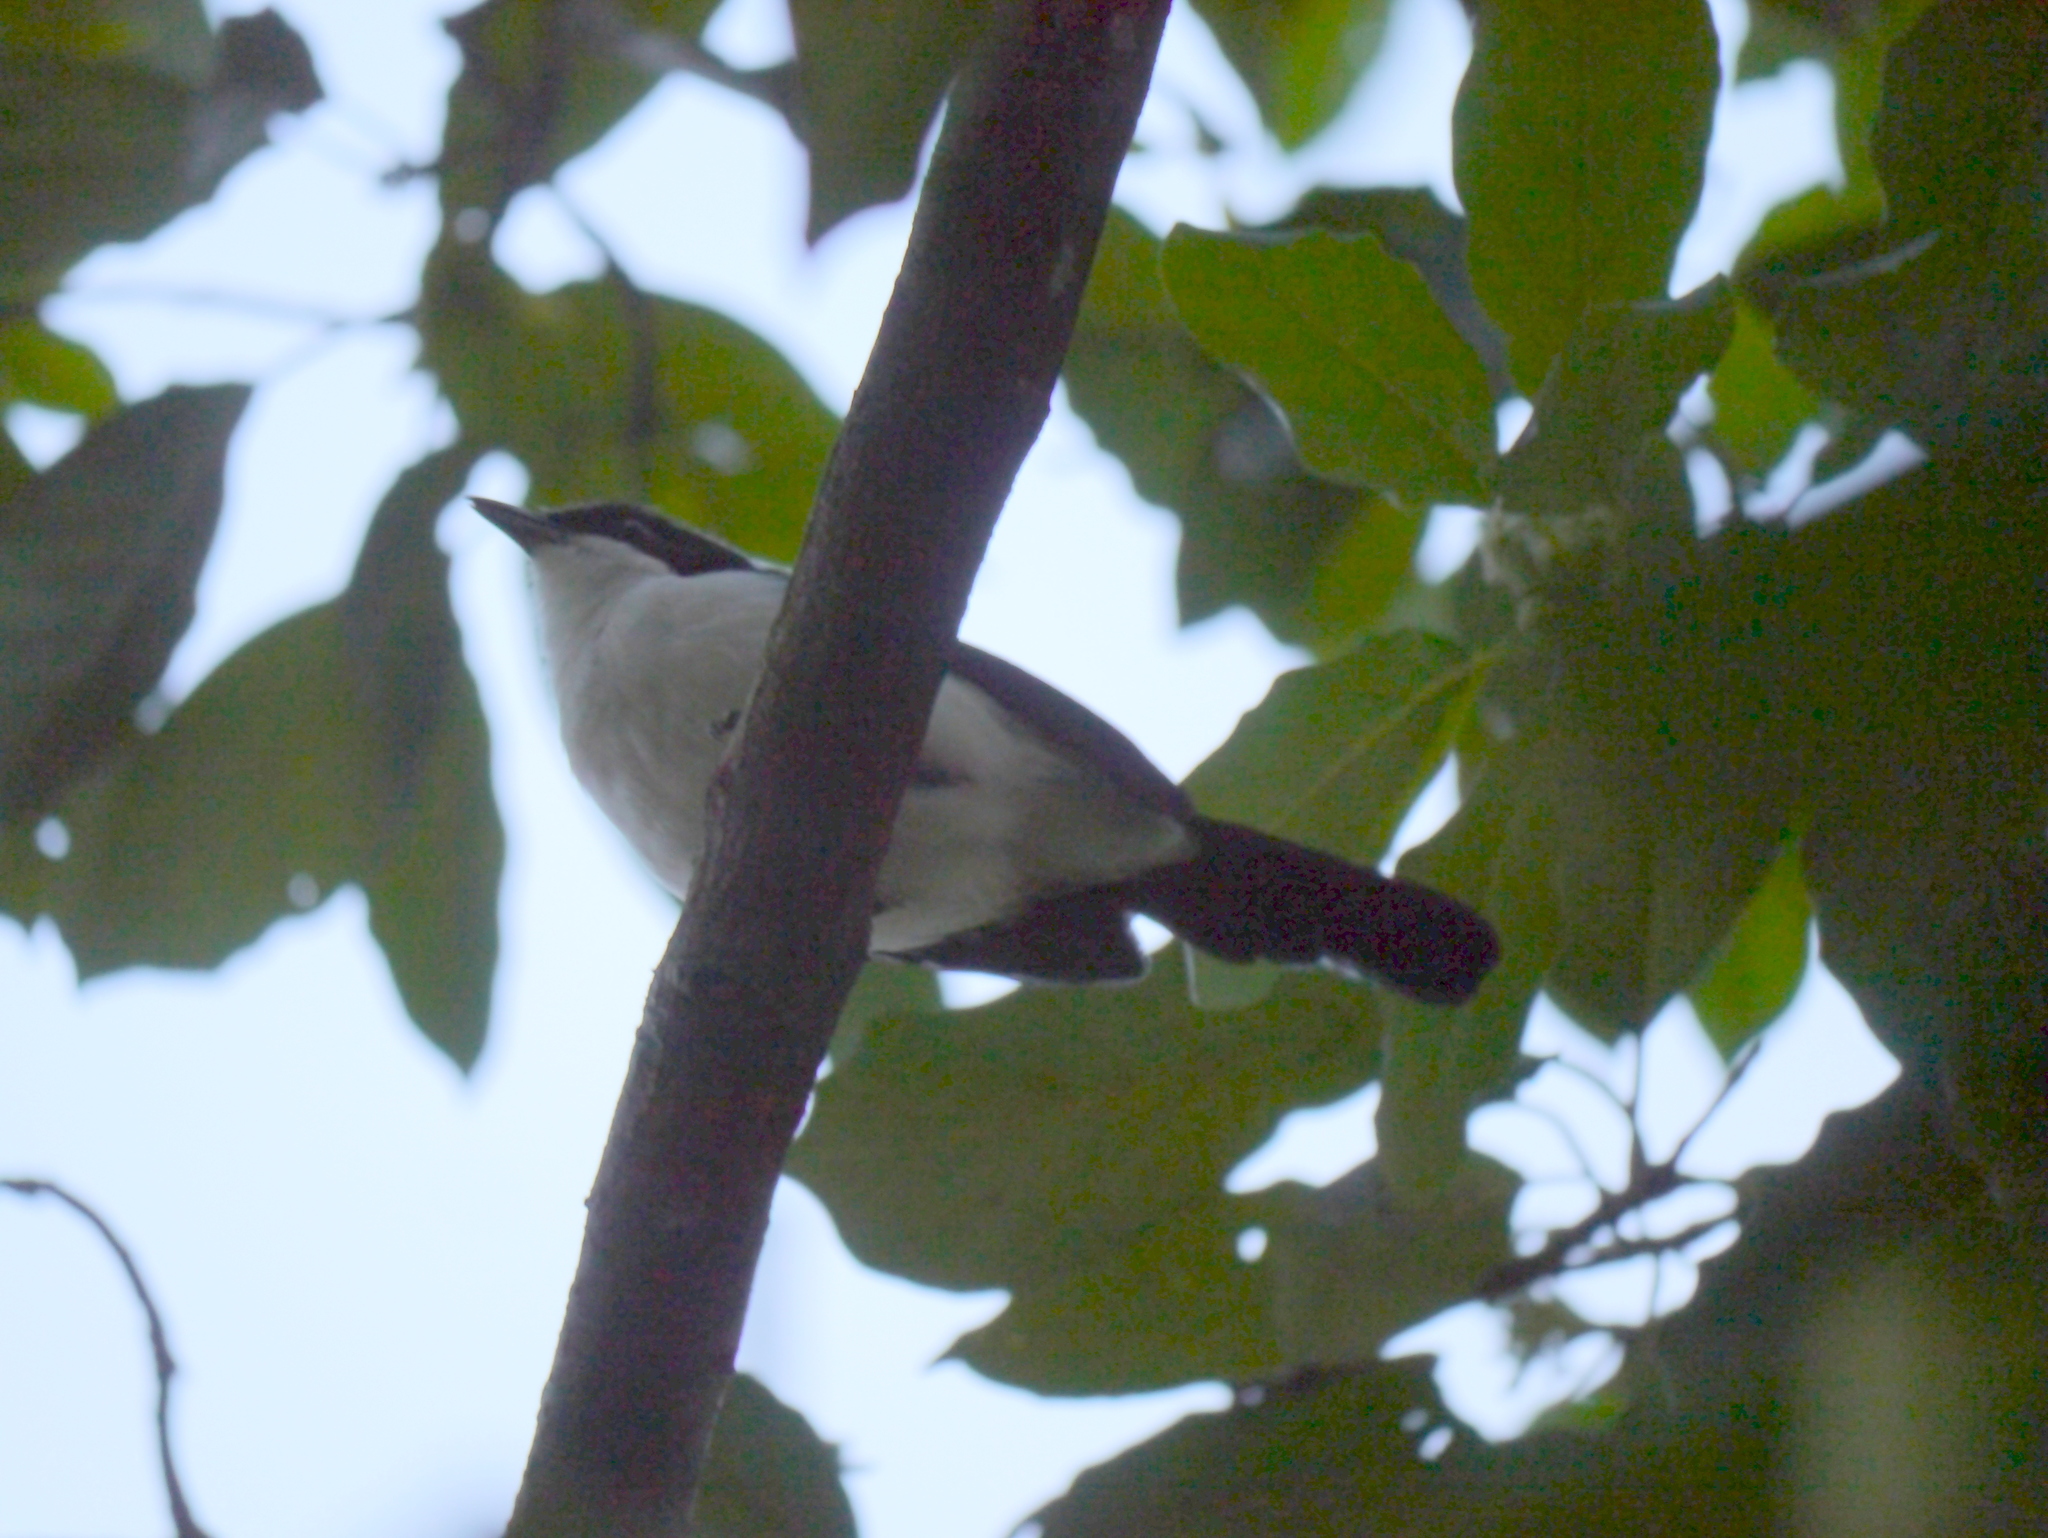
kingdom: Animalia
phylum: Chordata
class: Aves
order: Passeriformes
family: Malaconotidae
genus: Laniarius
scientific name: Laniarius major
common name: Tropical boubou
